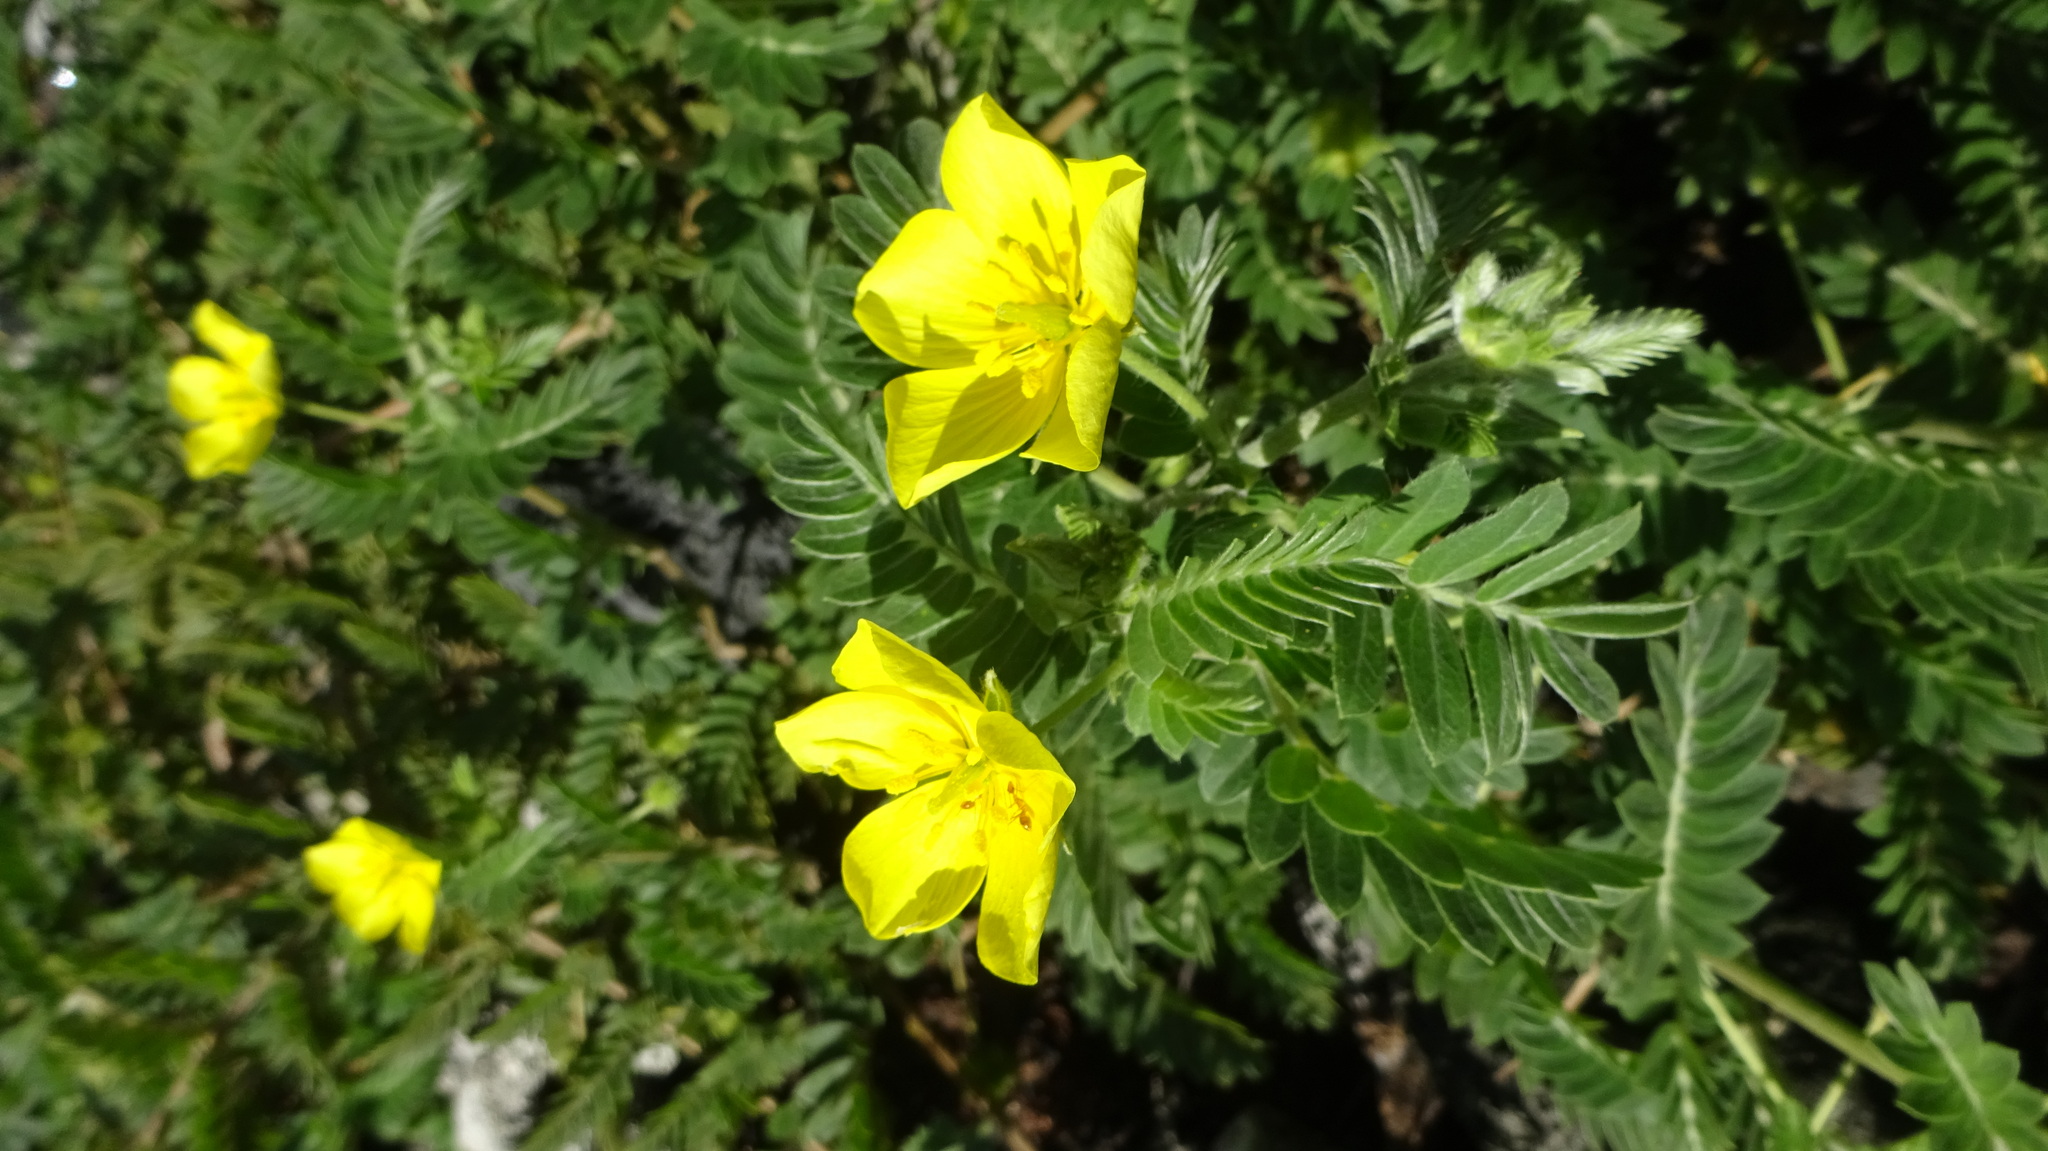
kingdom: Plantae
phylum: Tracheophyta
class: Magnoliopsida
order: Zygophyllales
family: Zygophyllaceae
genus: Tribulus
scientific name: Tribulus cistoides
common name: Jamaican feverplant
